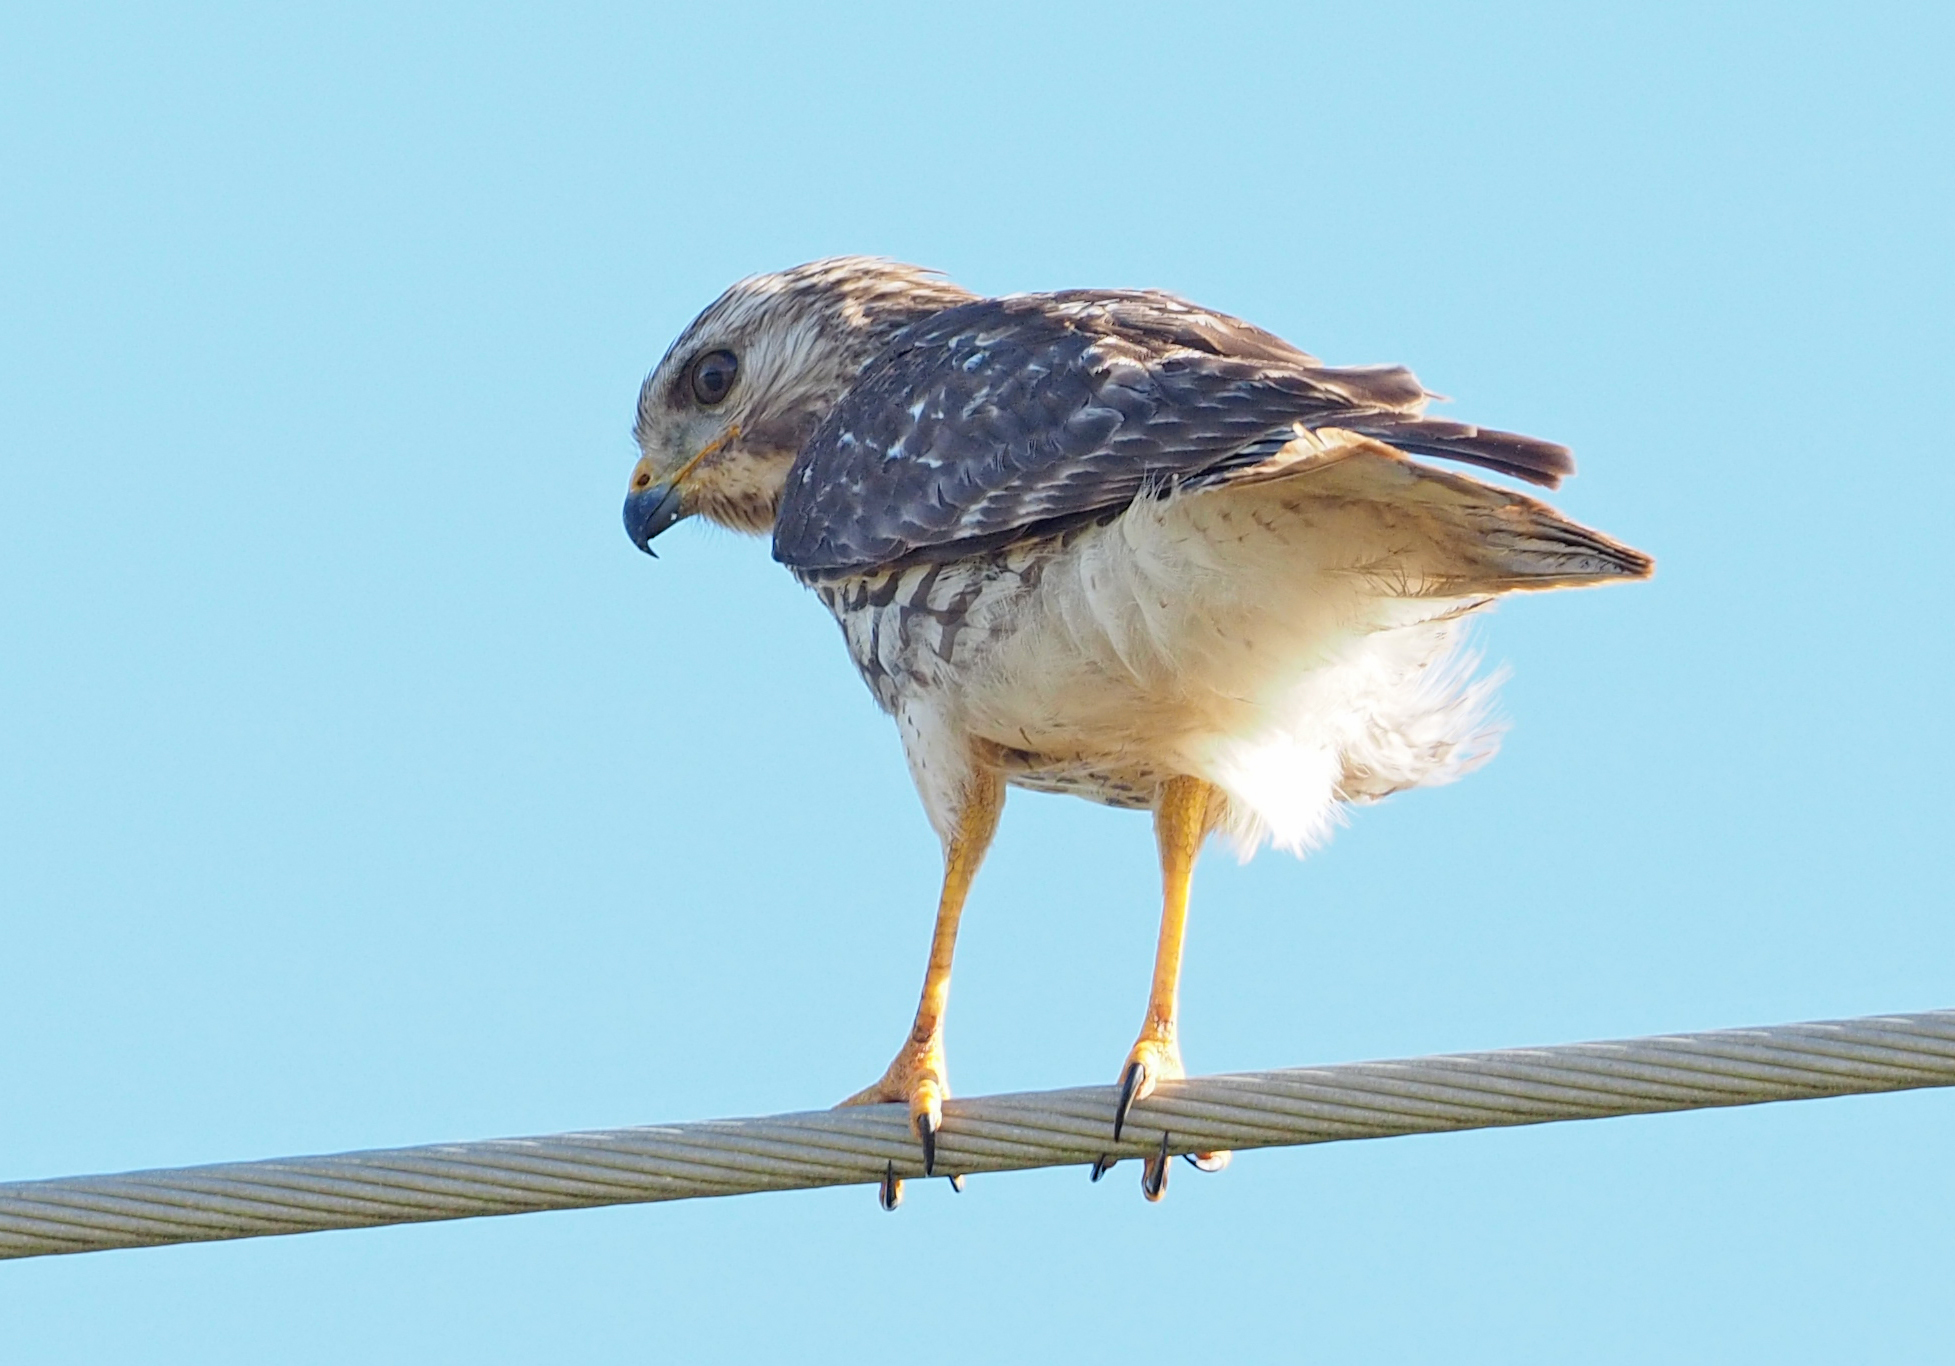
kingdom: Animalia
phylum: Chordata
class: Aves
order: Accipitriformes
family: Accipitridae
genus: Buteo
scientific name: Buteo lineatus
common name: Red-shouldered hawk
